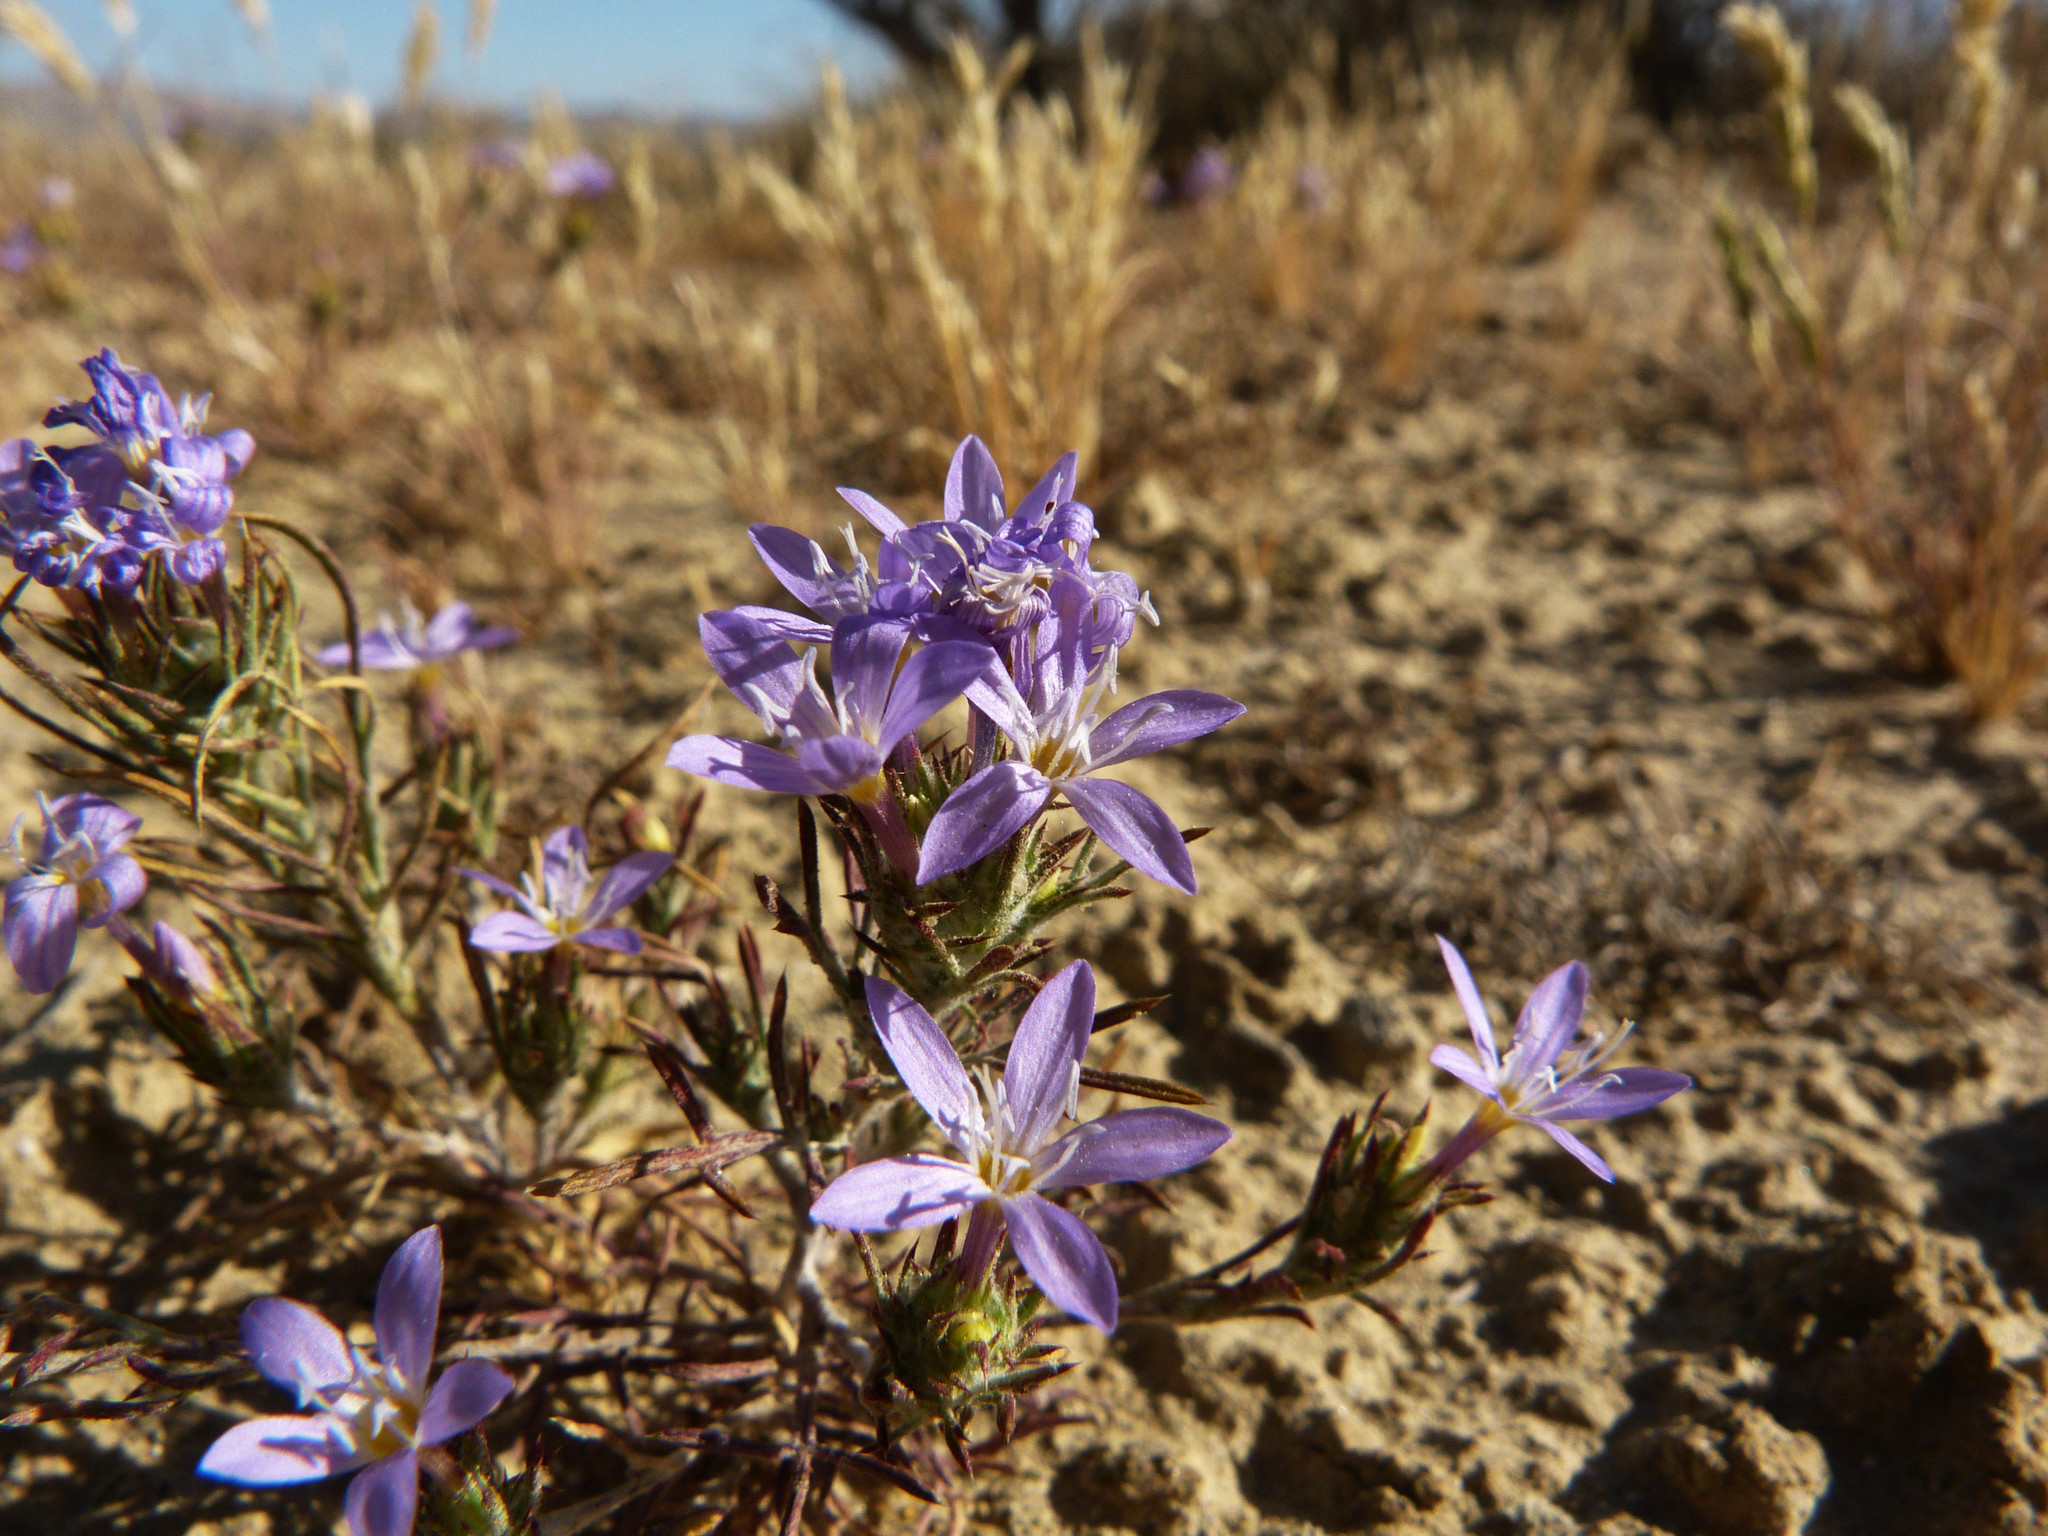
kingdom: Plantae
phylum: Tracheophyta
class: Magnoliopsida
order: Ericales
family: Polemoniaceae
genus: Eriastrum
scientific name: Eriastrum pluriflorum
